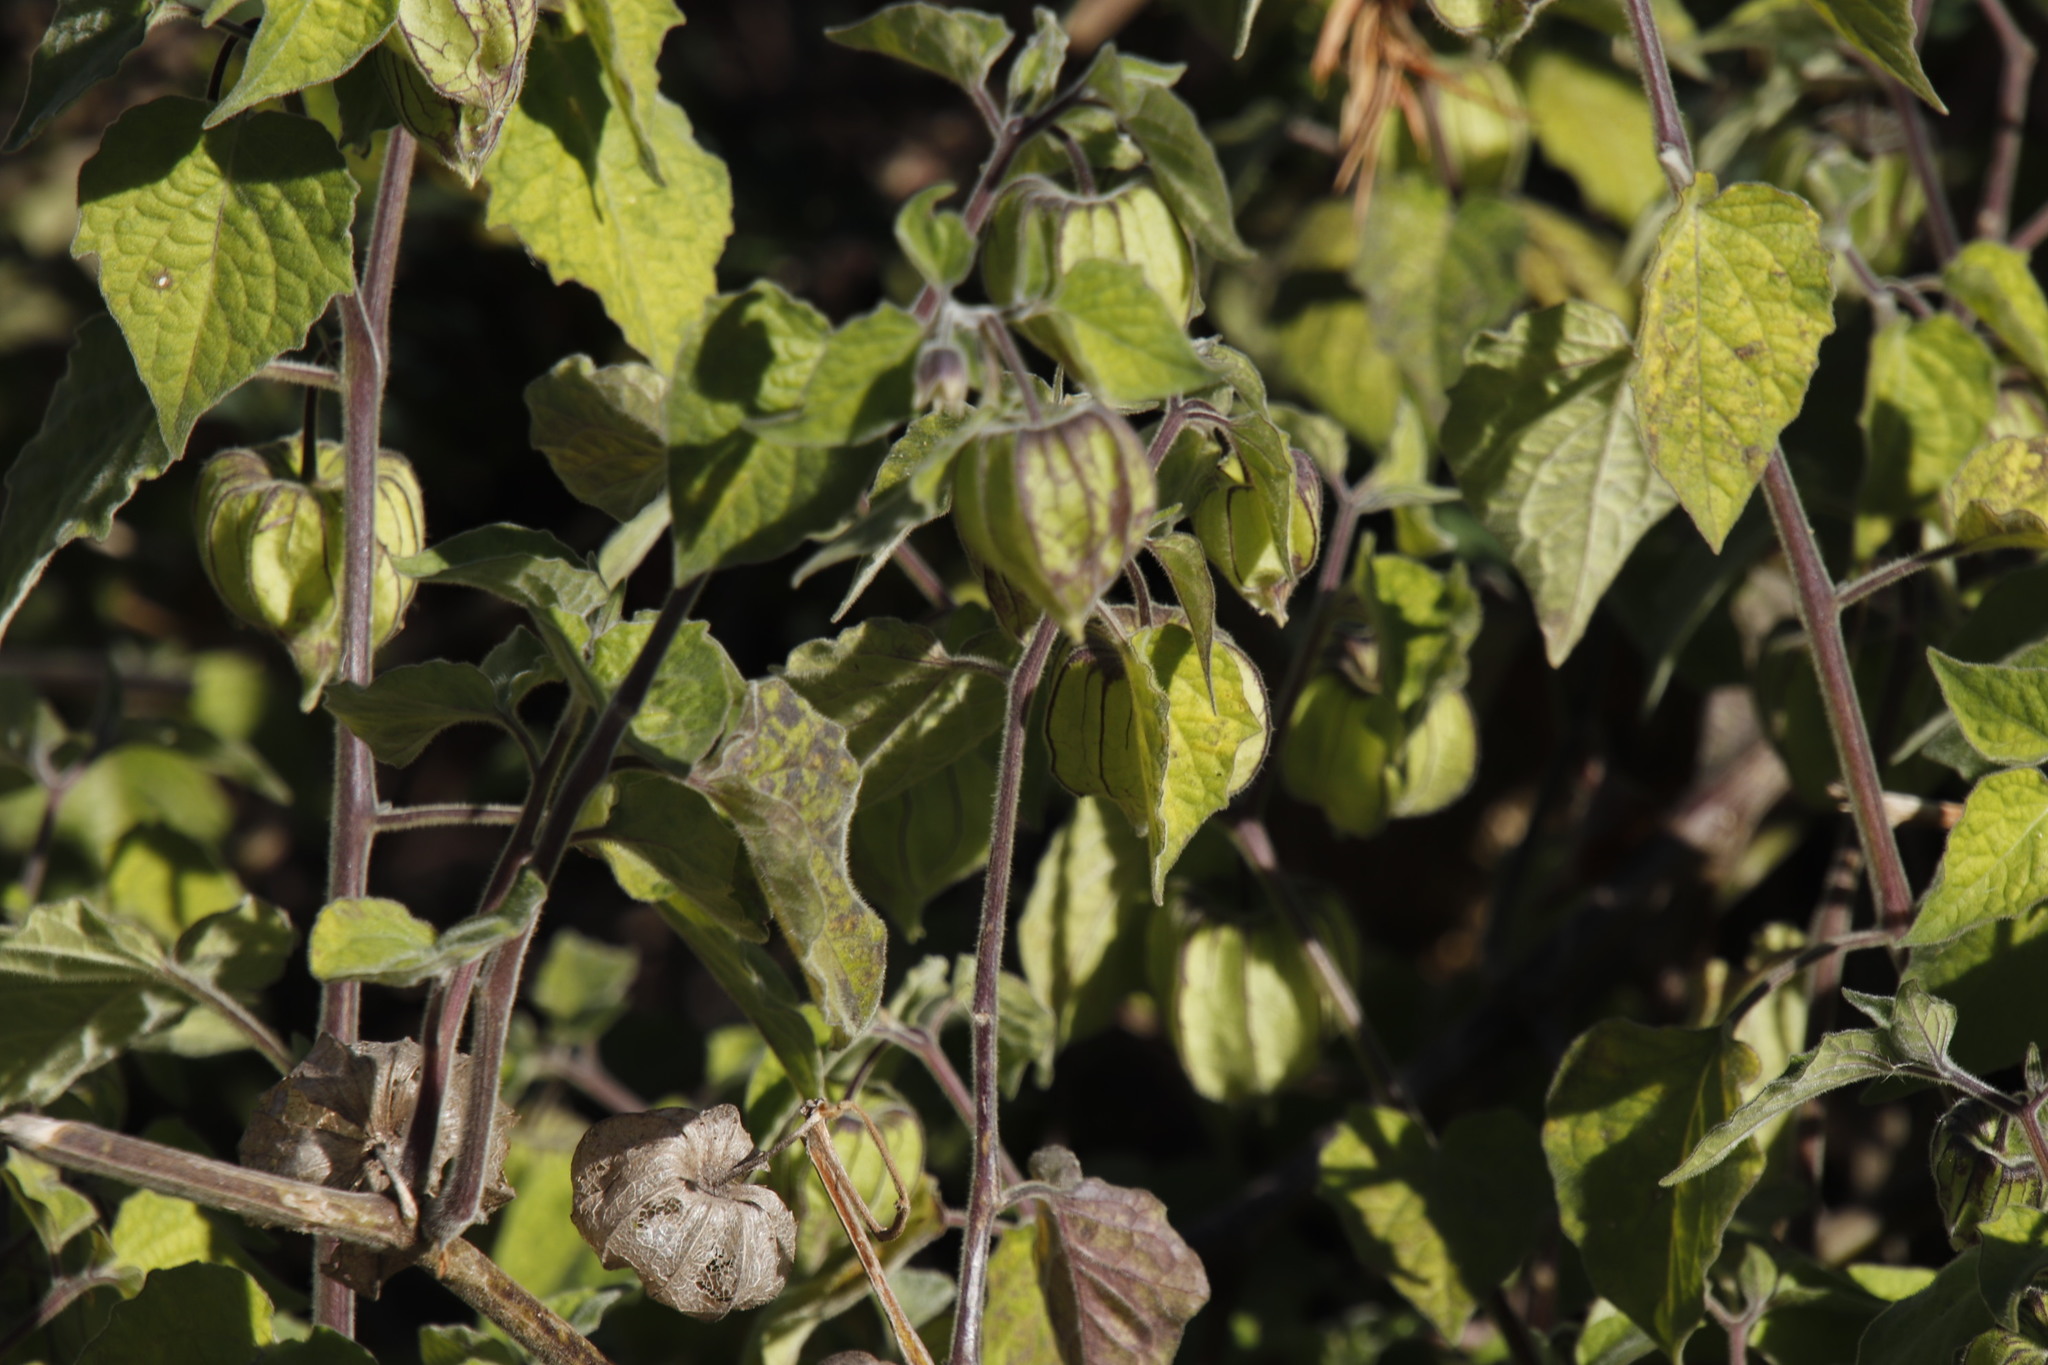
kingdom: Plantae
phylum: Tracheophyta
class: Magnoliopsida
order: Solanales
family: Solanaceae
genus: Physalis
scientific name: Physalis peruviana
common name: Cape-gooseberry
